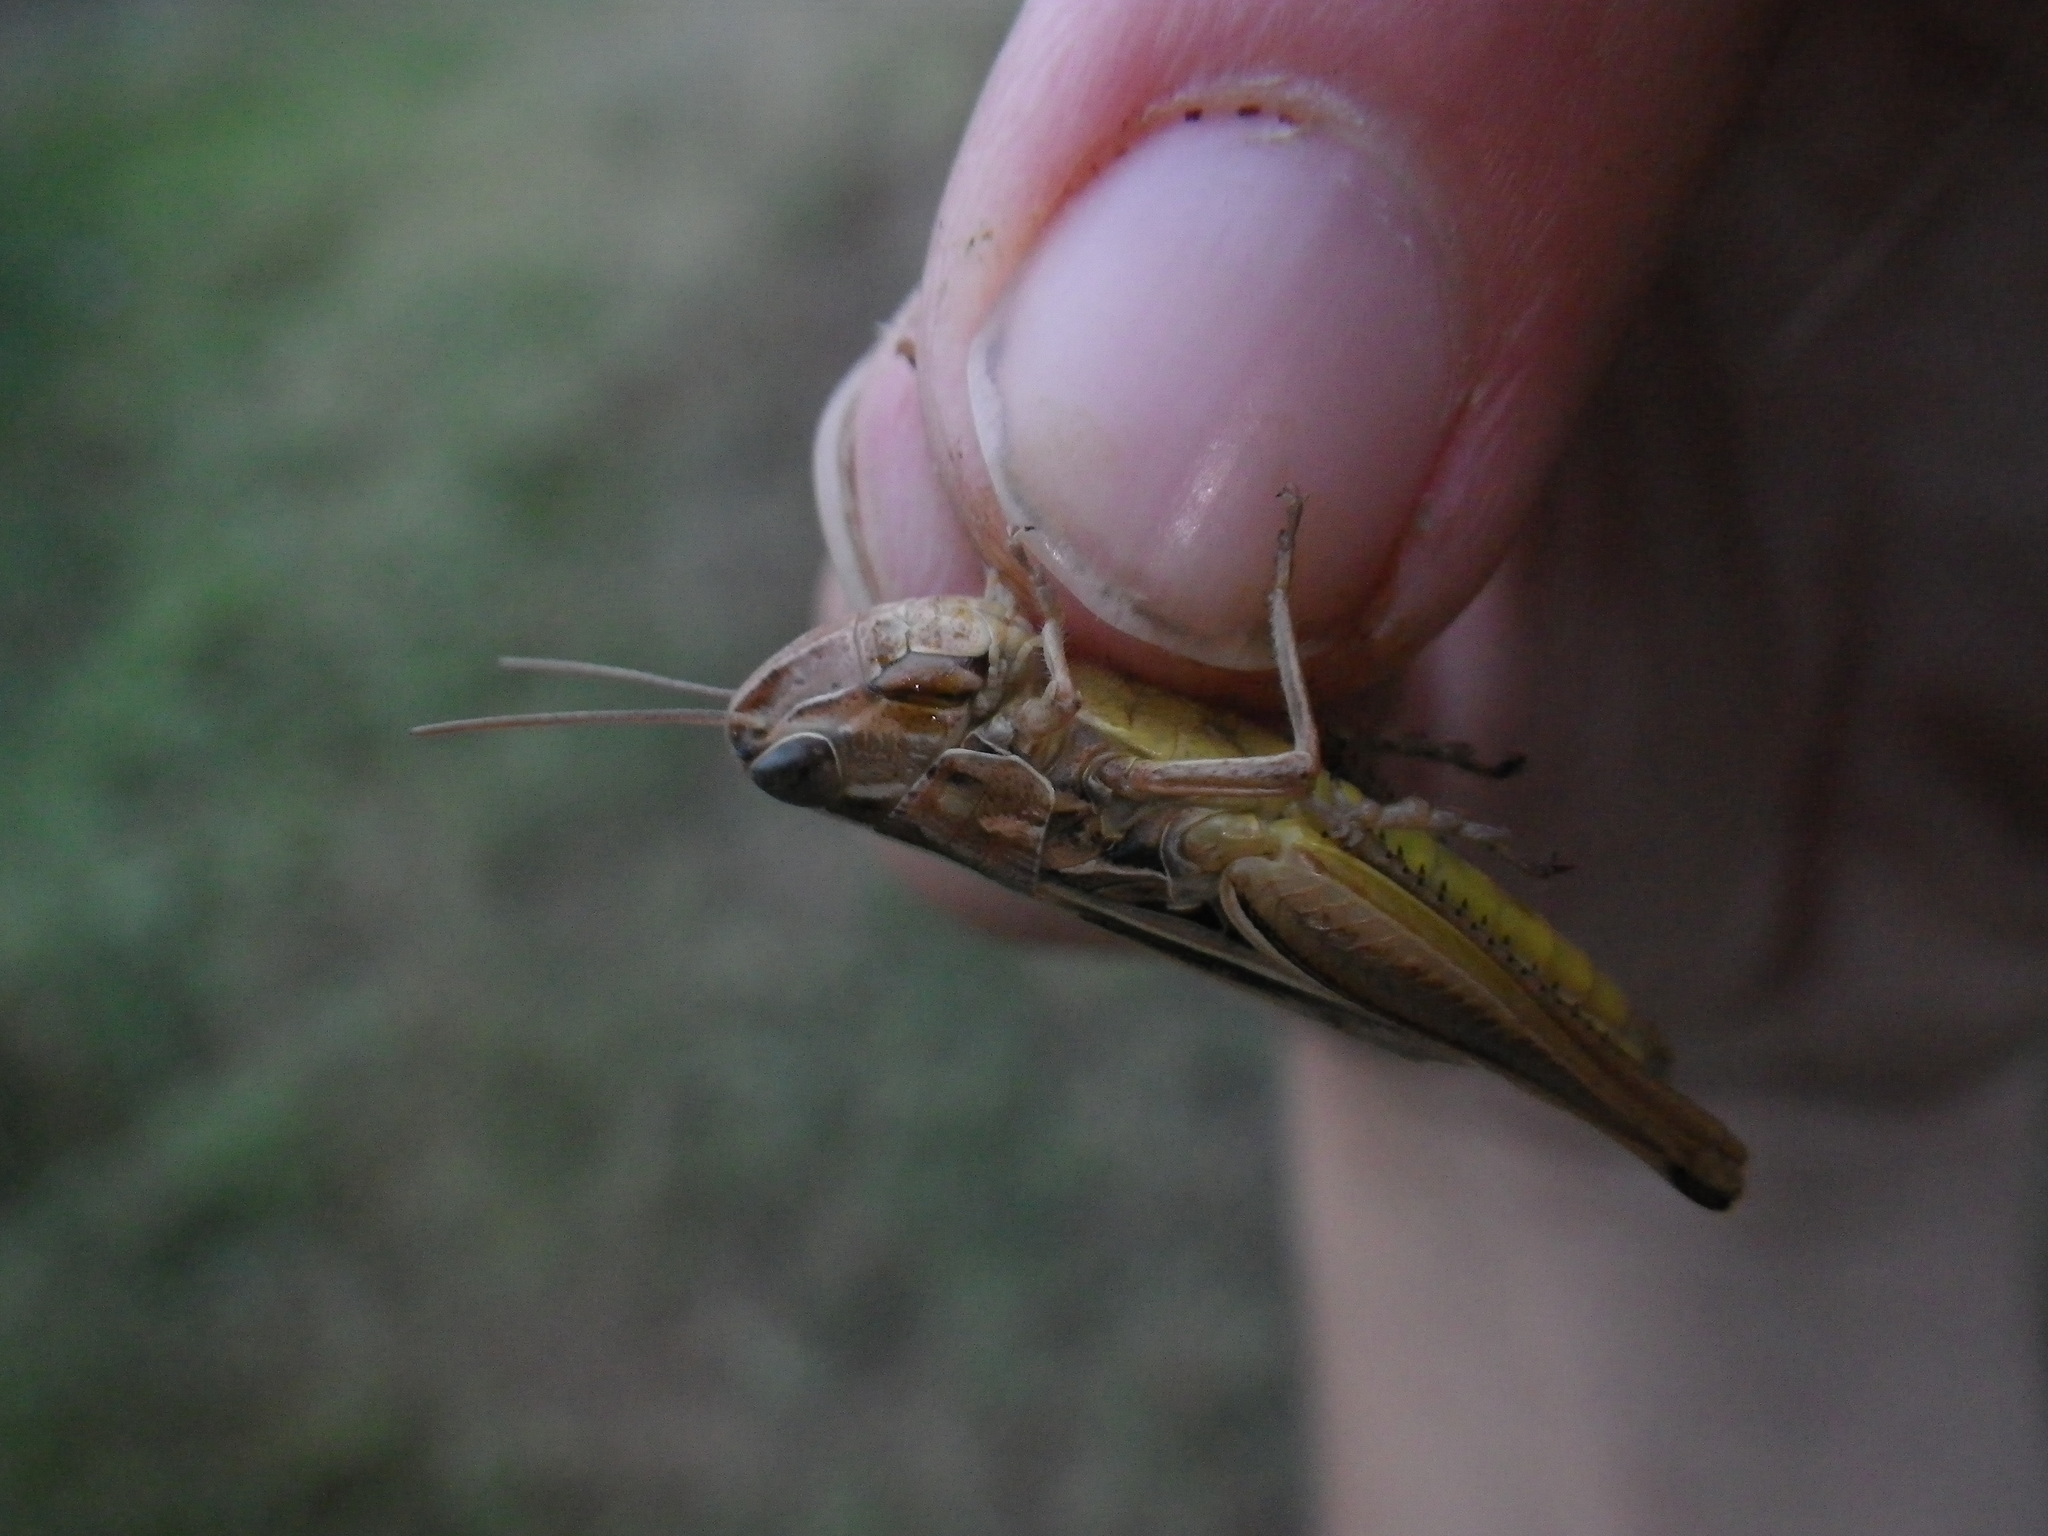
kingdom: Animalia
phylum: Arthropoda
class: Insecta
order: Orthoptera
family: Acrididae
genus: Euchorthippus
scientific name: Euchorthippus declivus
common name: Common straw grasshopper
